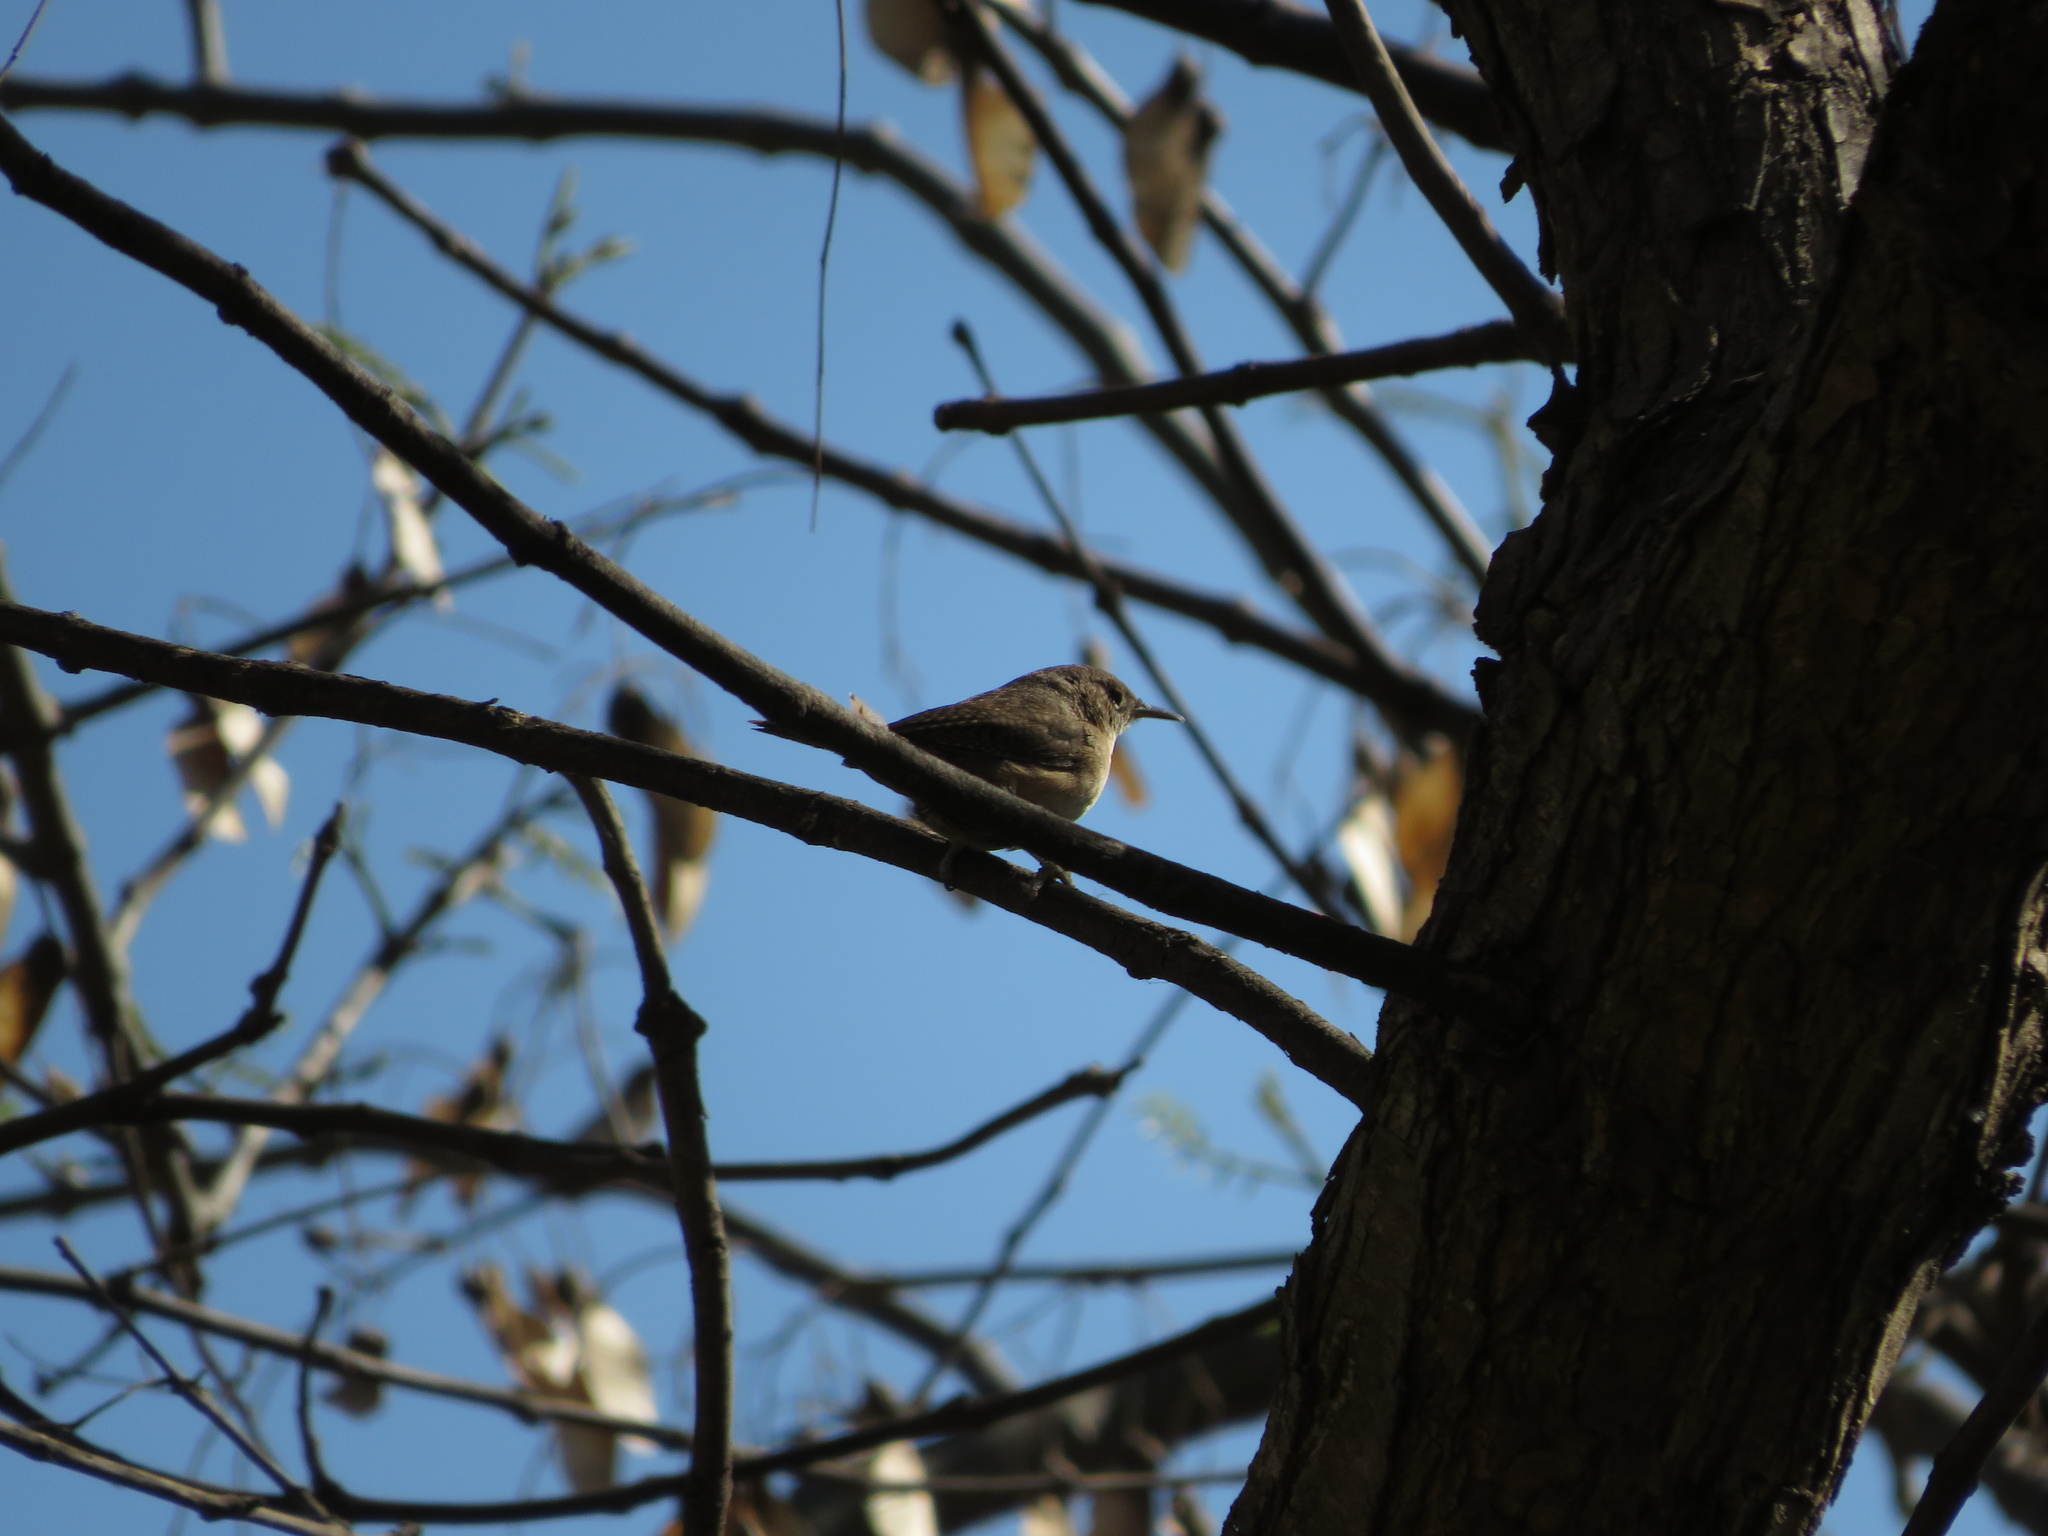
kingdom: Animalia
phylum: Chordata
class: Aves
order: Passeriformes
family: Troglodytidae
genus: Troglodytes
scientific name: Troglodytes aedon
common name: House wren
